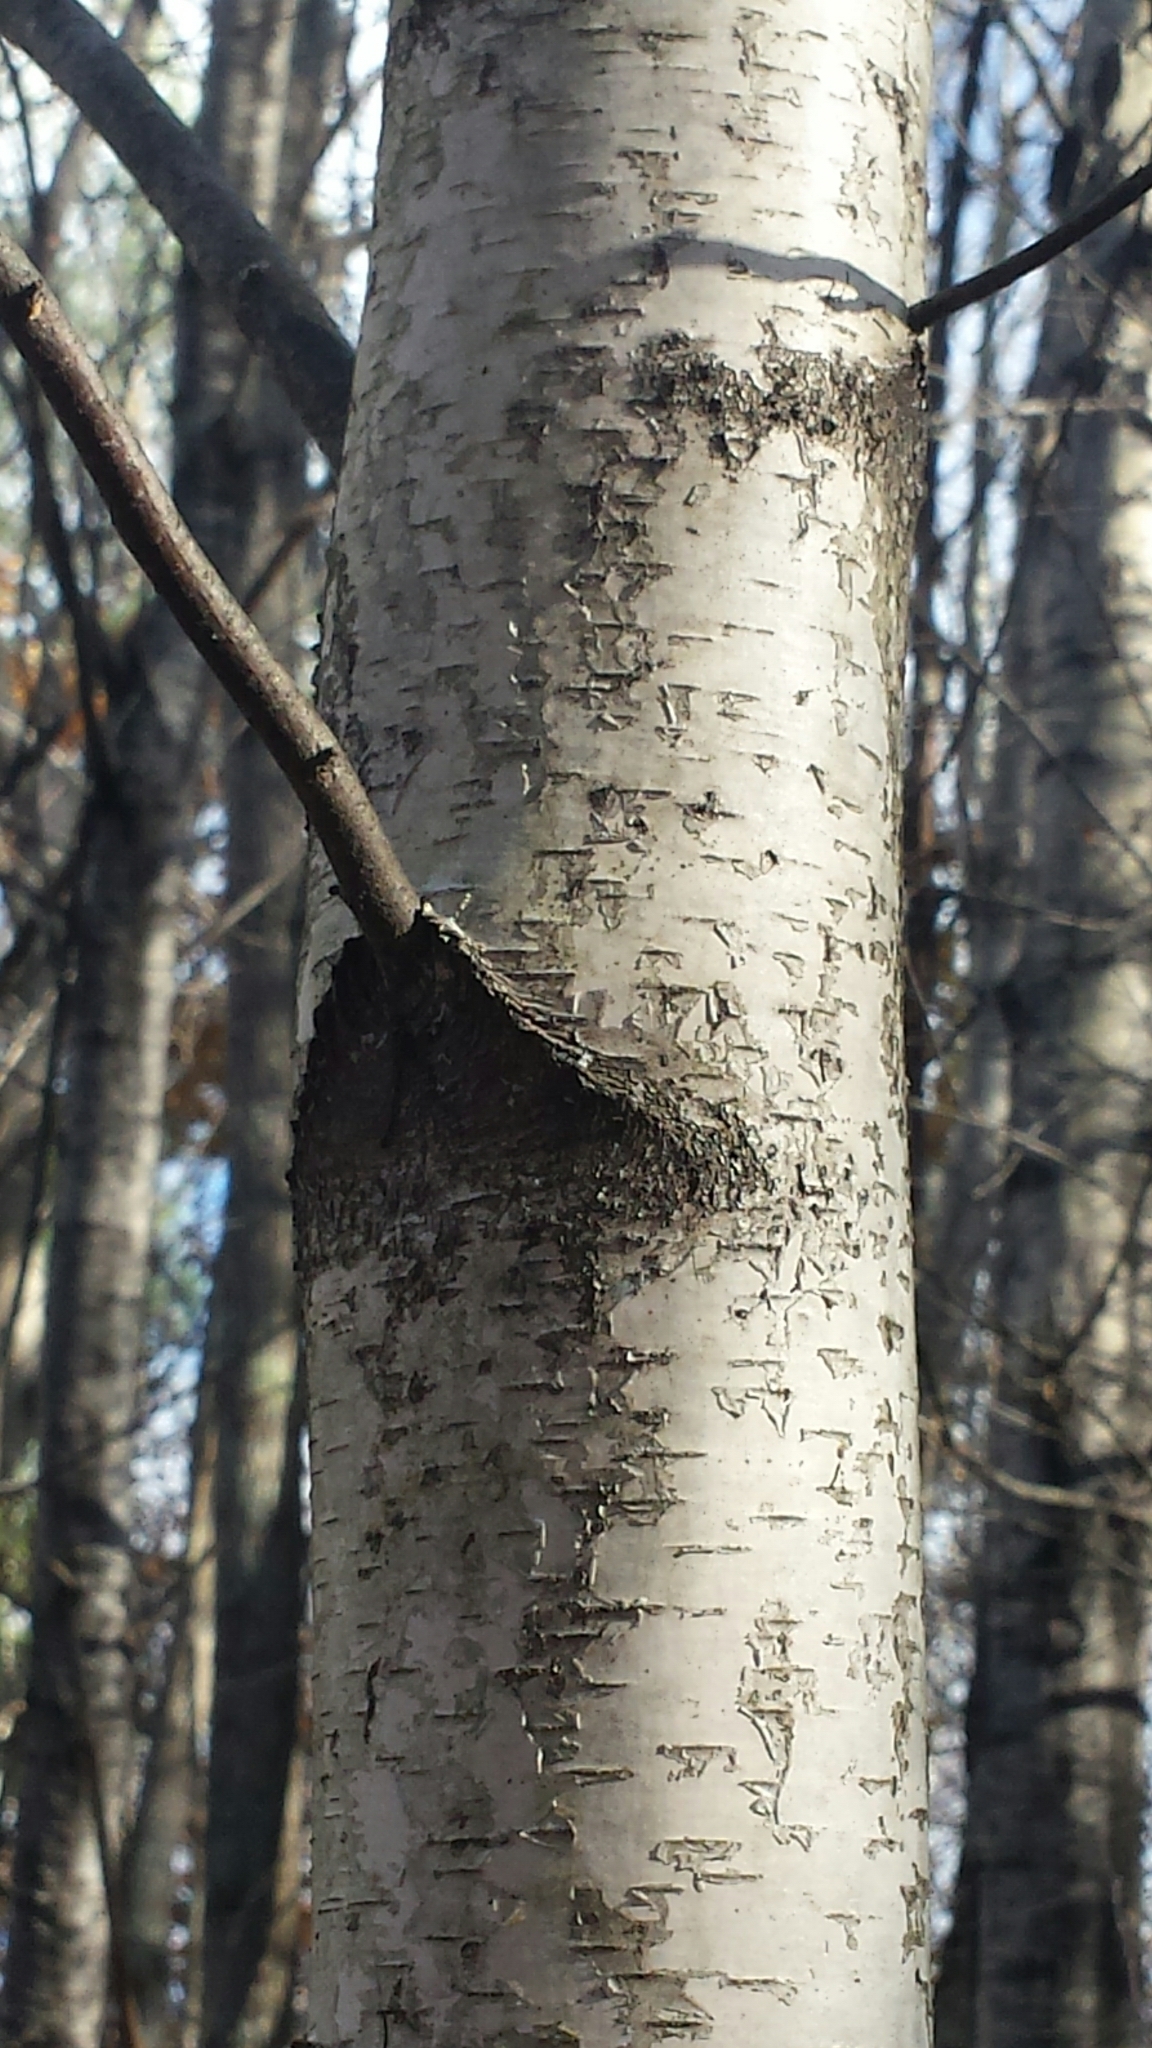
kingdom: Plantae
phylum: Tracheophyta
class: Magnoliopsida
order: Fagales
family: Betulaceae
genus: Betula
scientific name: Betula populifolia
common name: Fire birch
